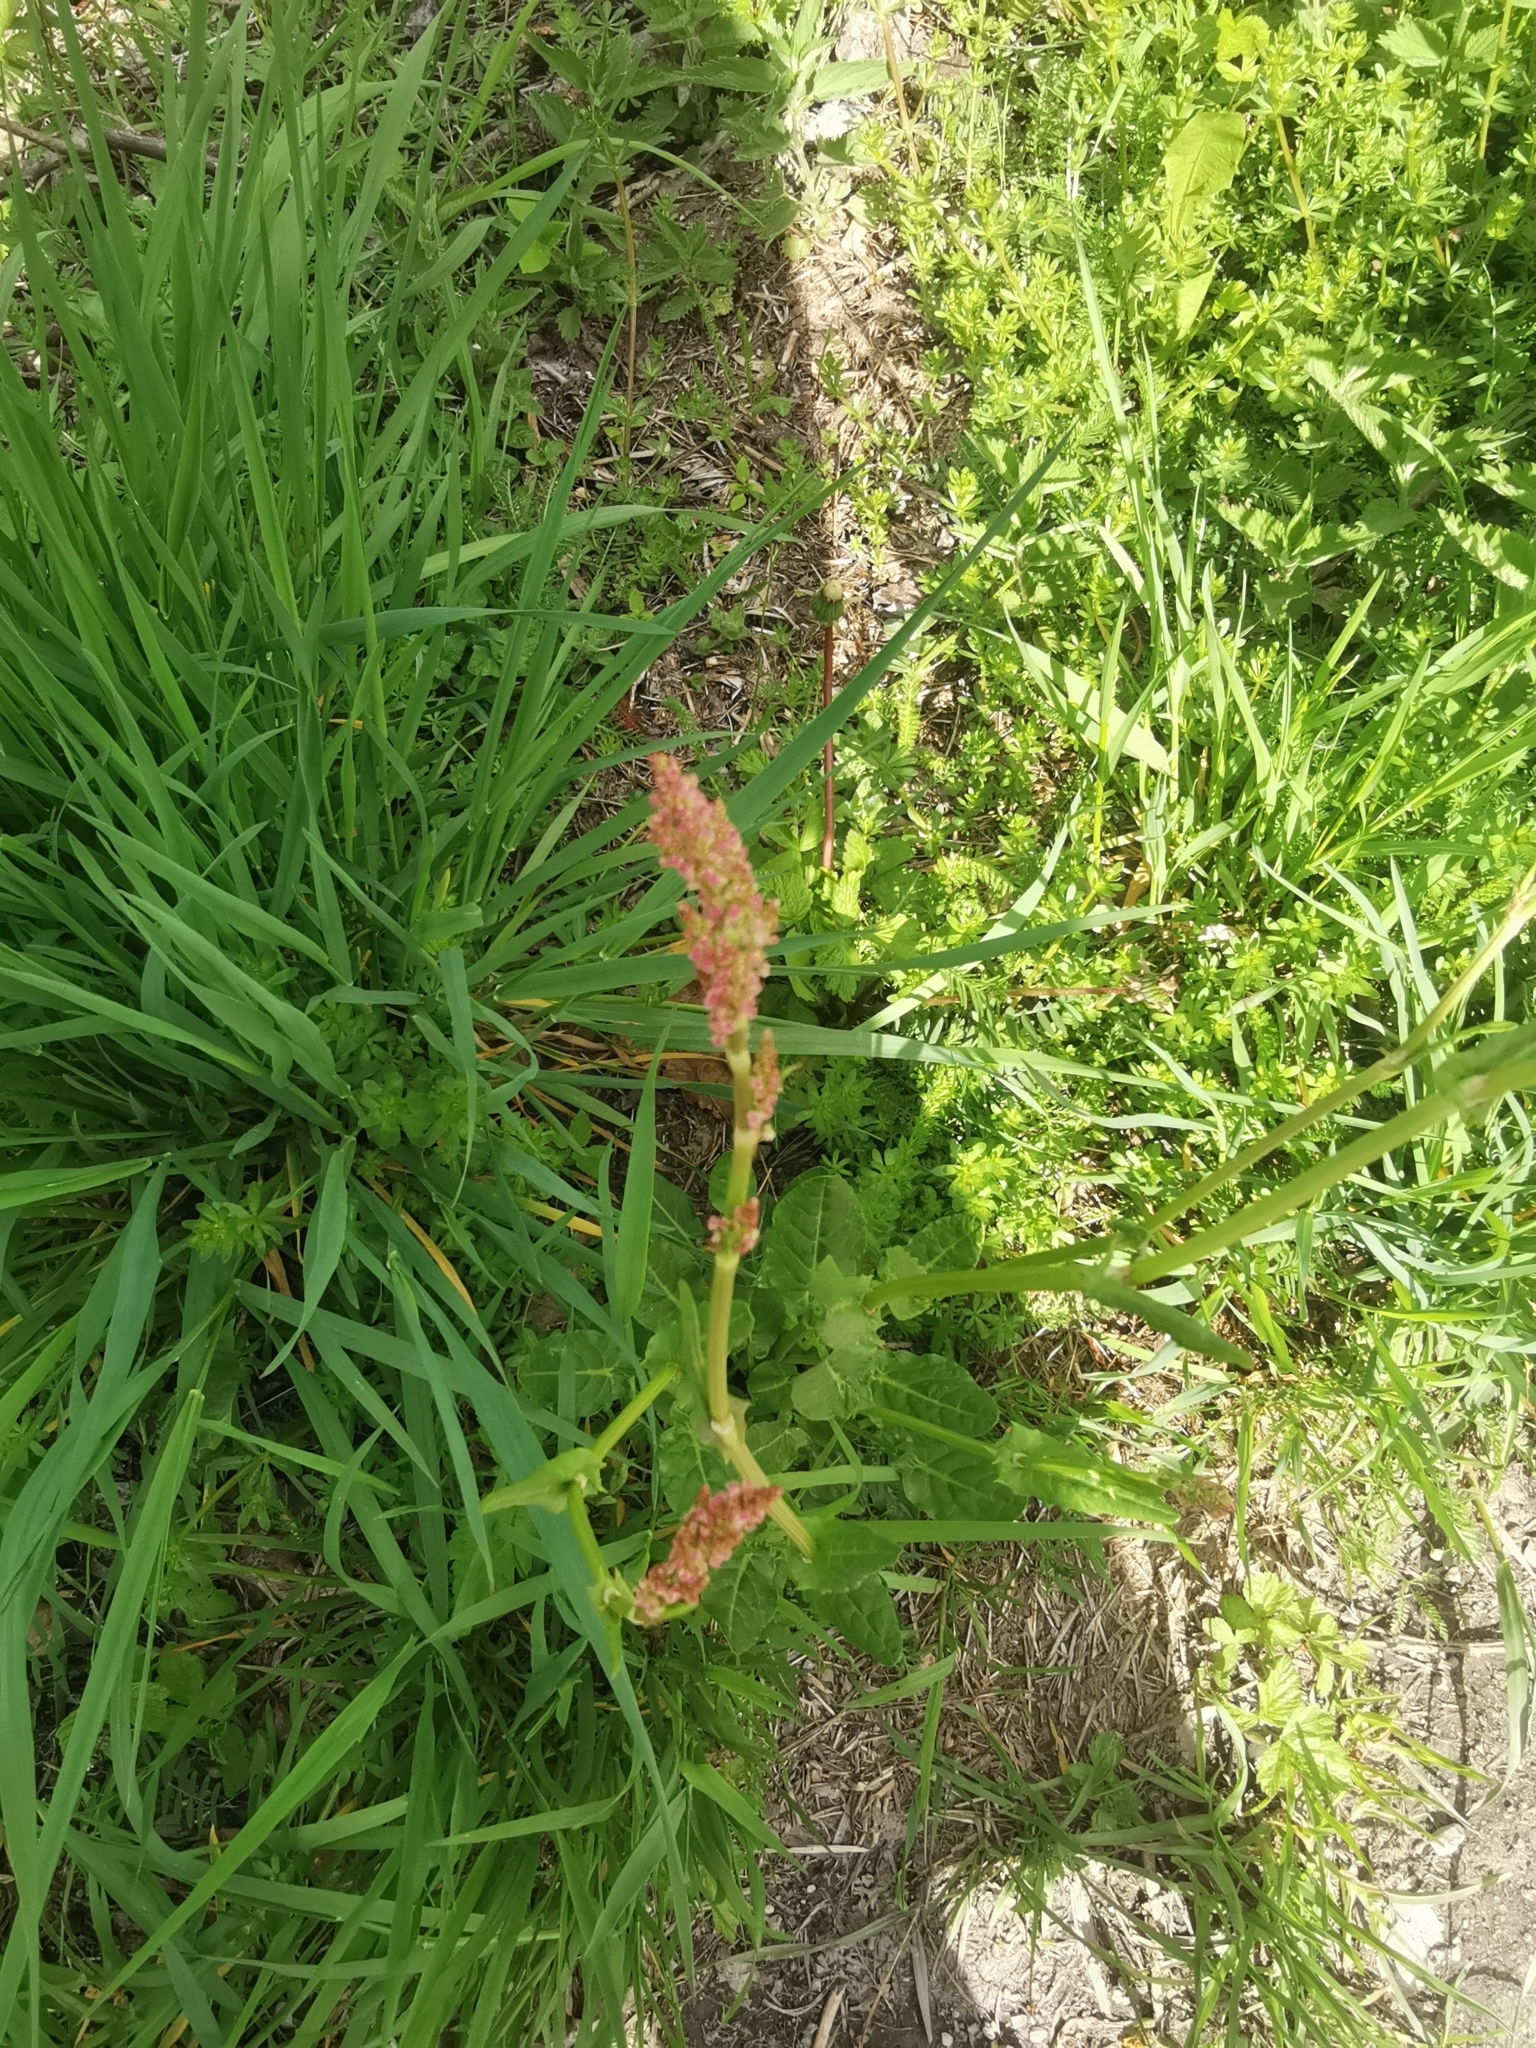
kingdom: Plantae
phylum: Tracheophyta
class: Magnoliopsida
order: Caryophyllales
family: Polygonaceae
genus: Rumex
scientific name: Rumex acetosa
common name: Garden sorrel
